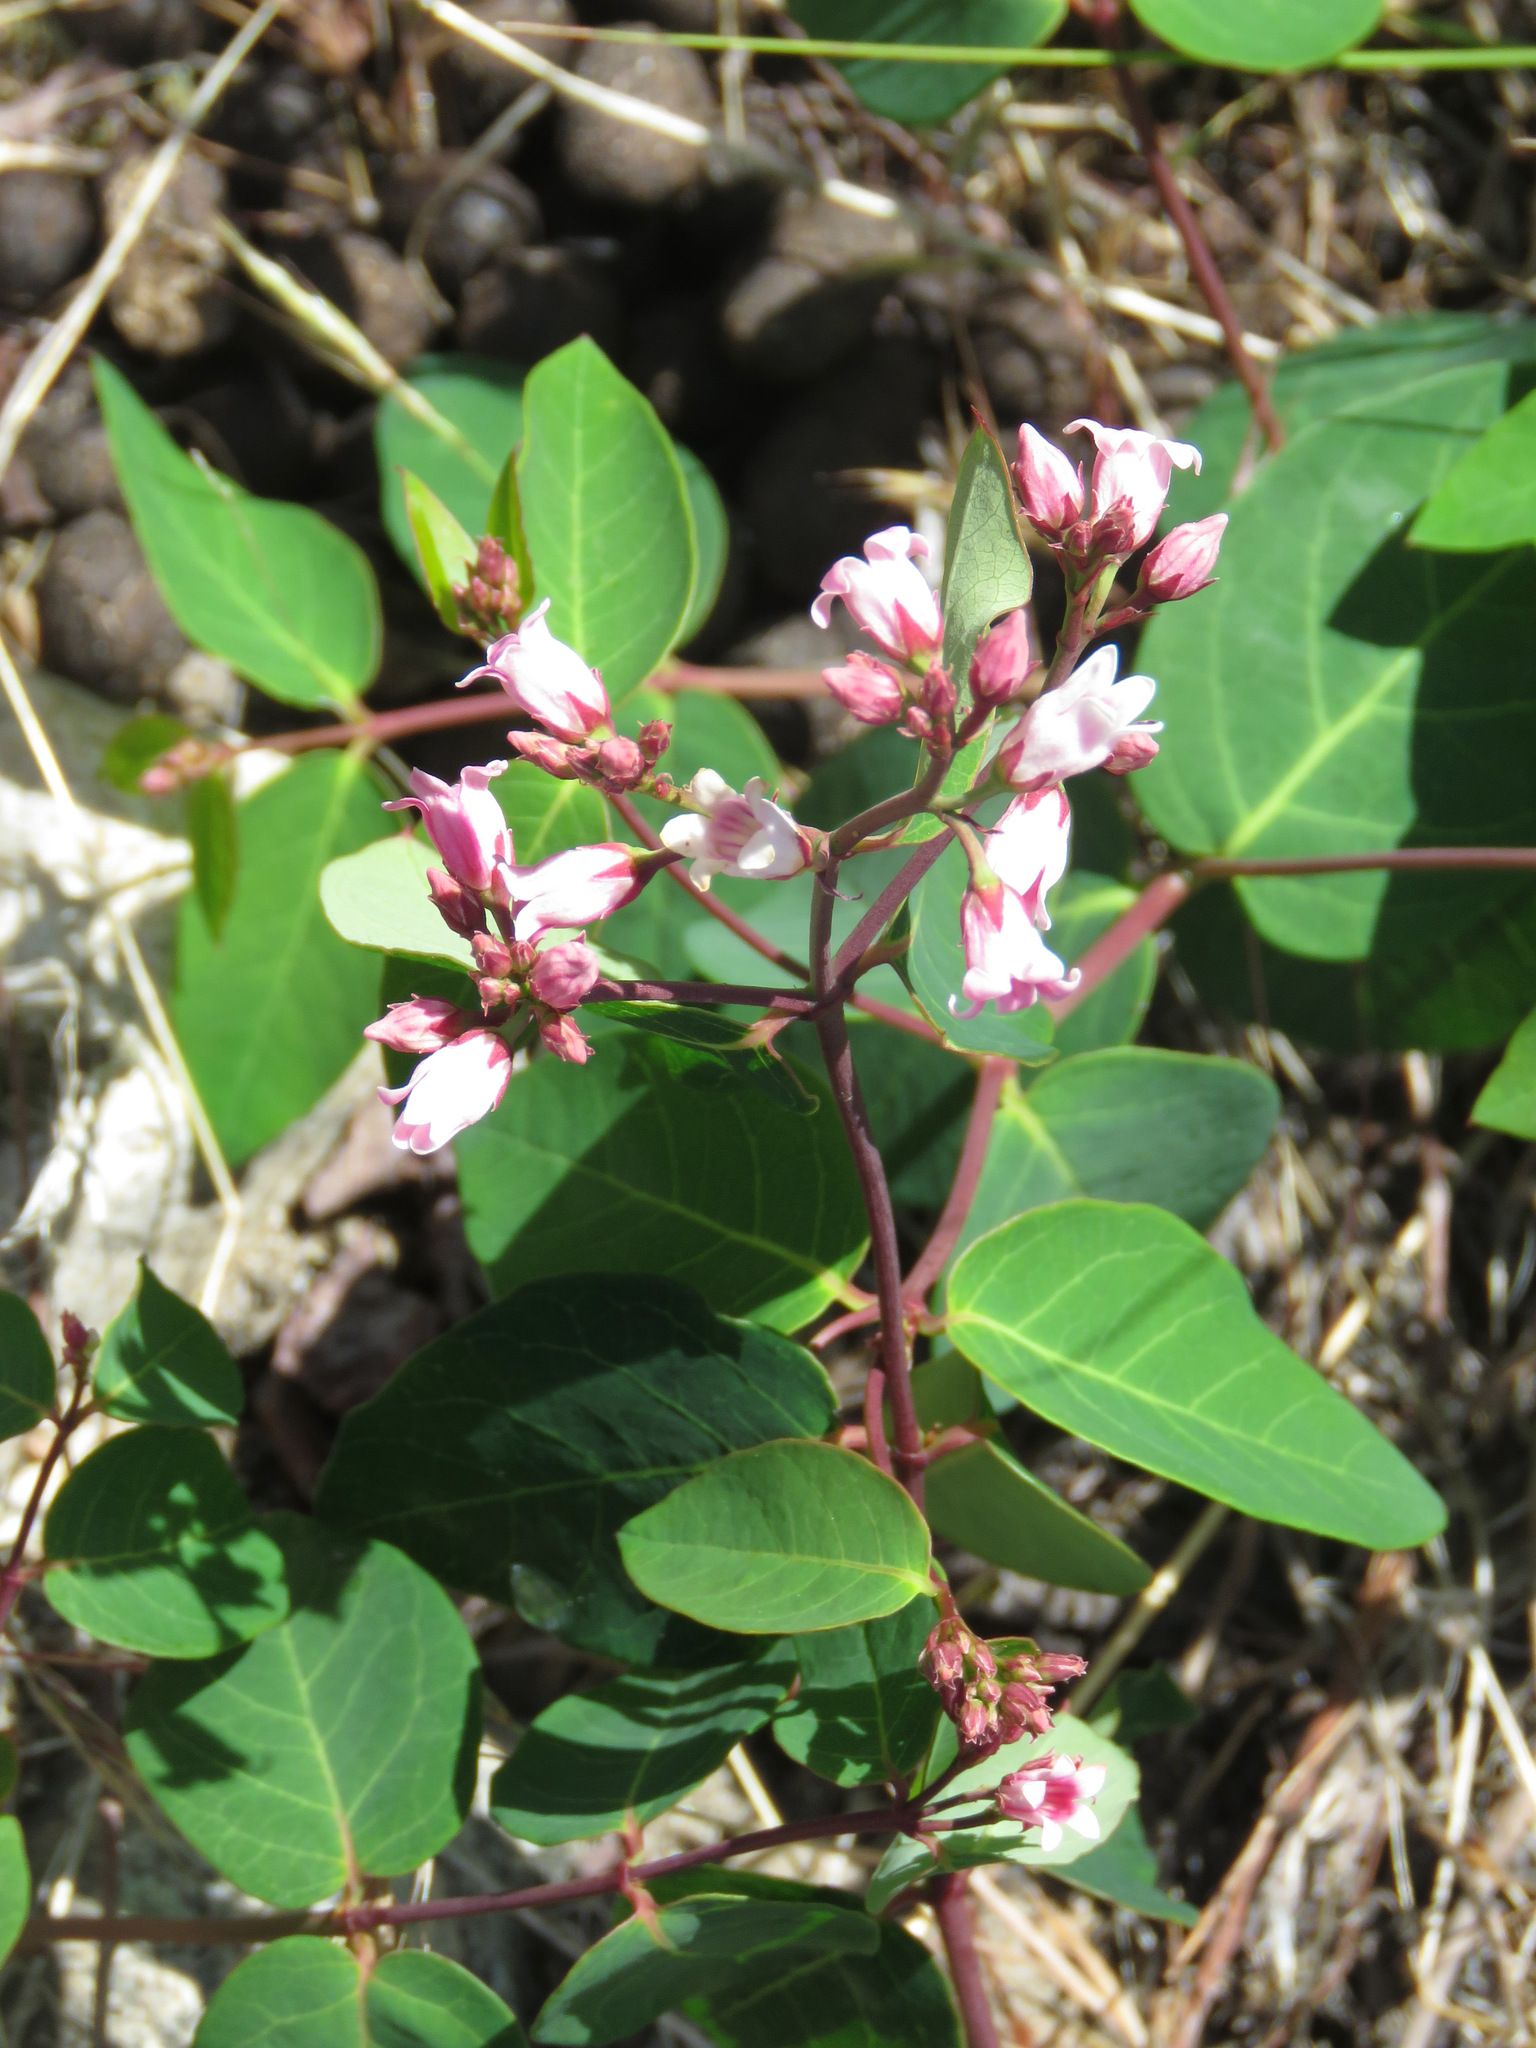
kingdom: Plantae
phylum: Tracheophyta
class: Magnoliopsida
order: Gentianales
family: Apocynaceae
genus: Apocynum
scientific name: Apocynum androsaemifolium
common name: Spreading dogbane
